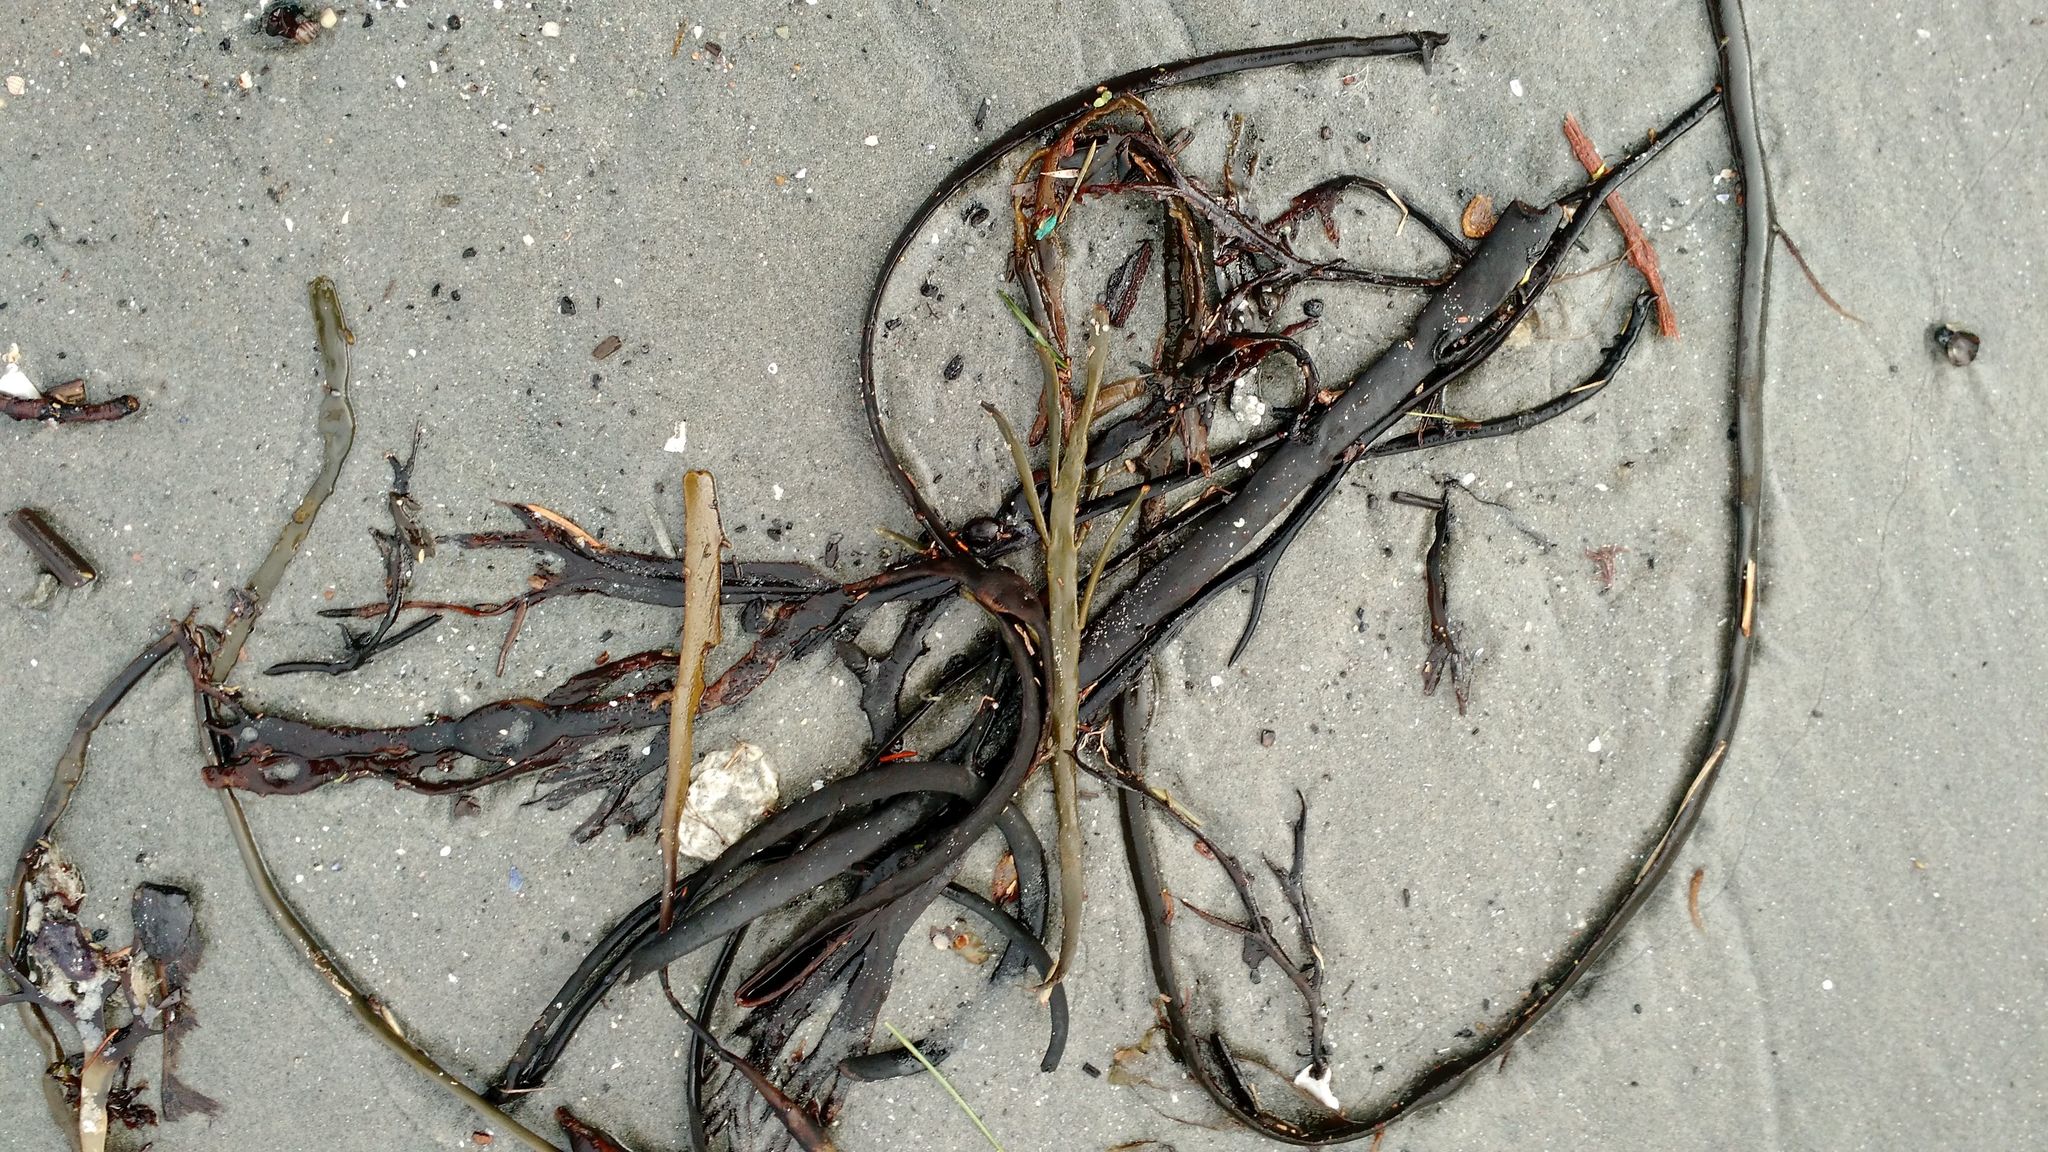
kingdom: Chromista
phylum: Ochrophyta
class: Phaeophyceae
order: Fucales
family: Fucaceae
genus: Ascophyllum
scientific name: Ascophyllum nodosum
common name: Knotted wrack
